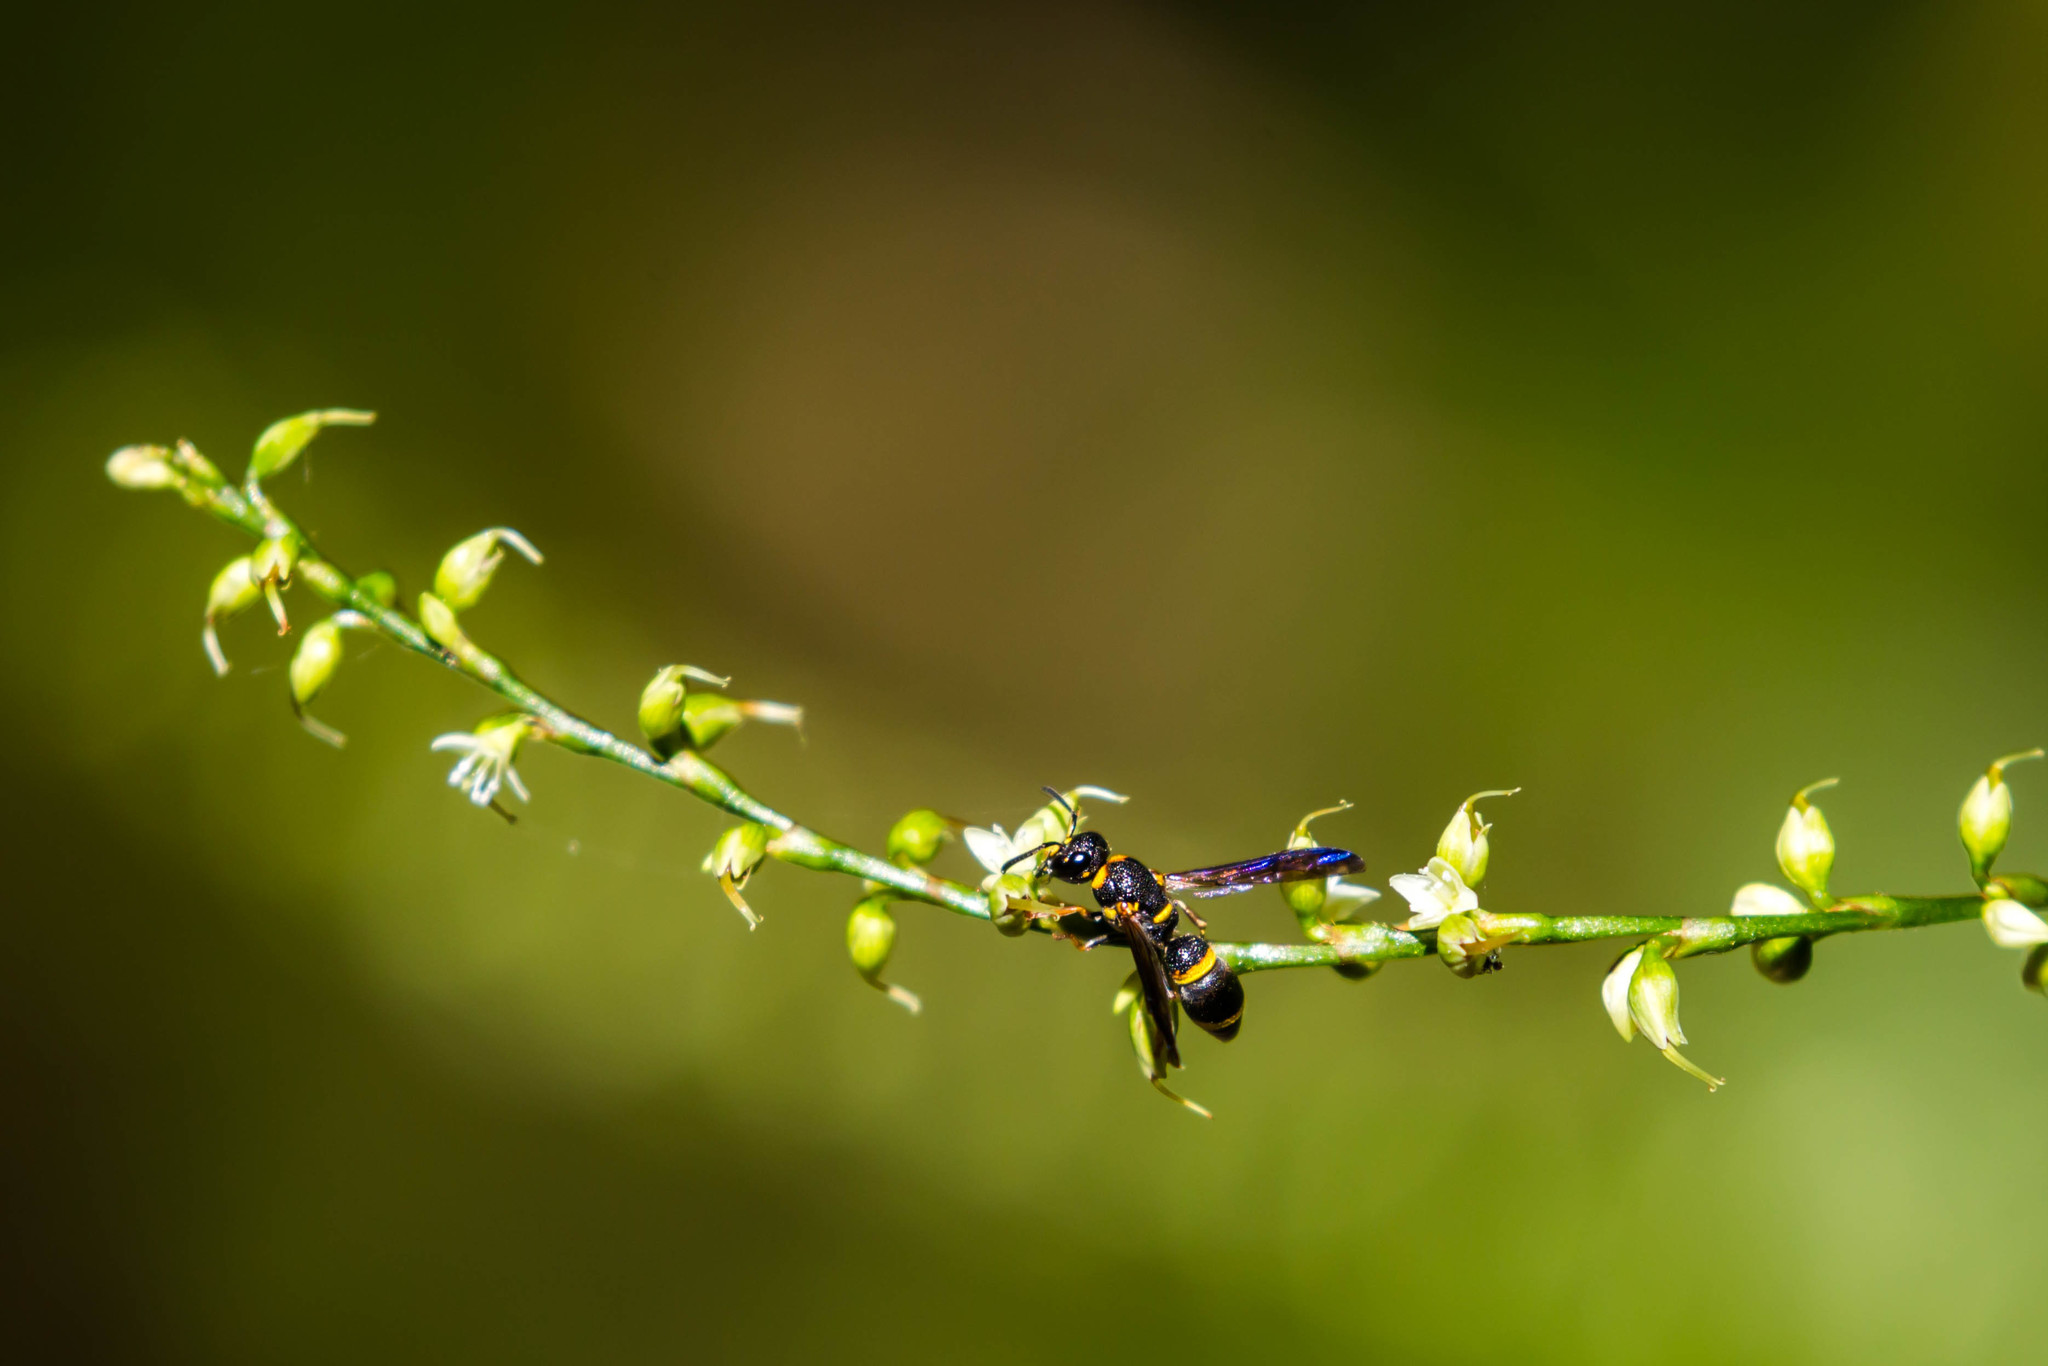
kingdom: Animalia
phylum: Arthropoda
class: Insecta
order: Hymenoptera
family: Eumenidae
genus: Parancistrocerus
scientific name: Parancistrocerus perennis
